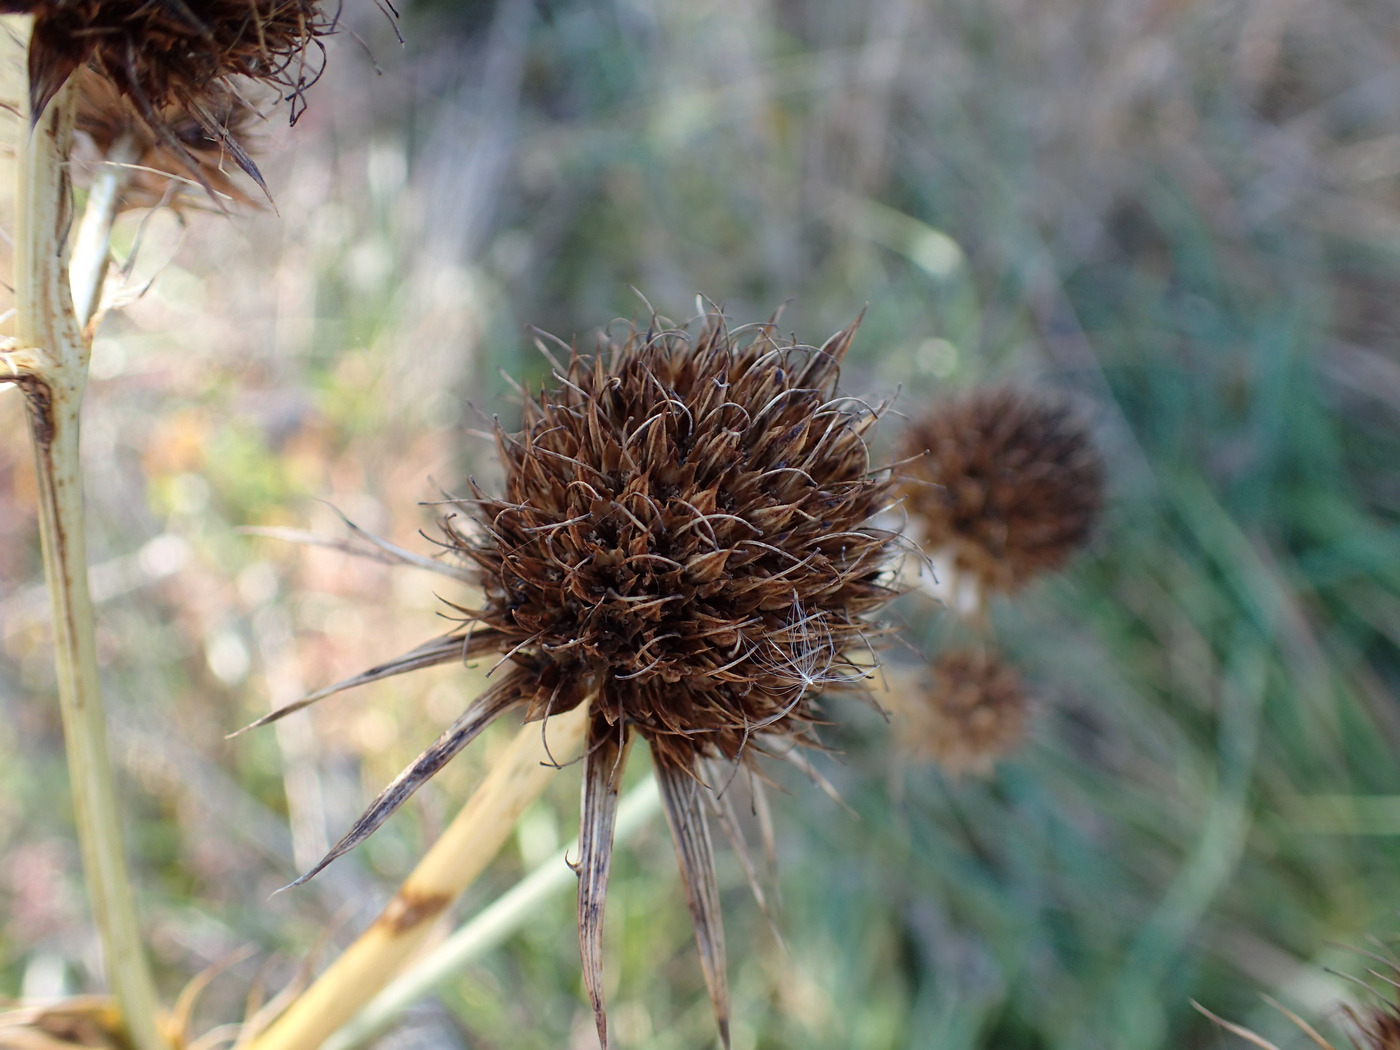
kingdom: Plantae
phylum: Tracheophyta
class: Magnoliopsida
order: Apiales
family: Apiaceae
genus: Eryngium
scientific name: Eryngium yuccifolium
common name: Button eryngo
